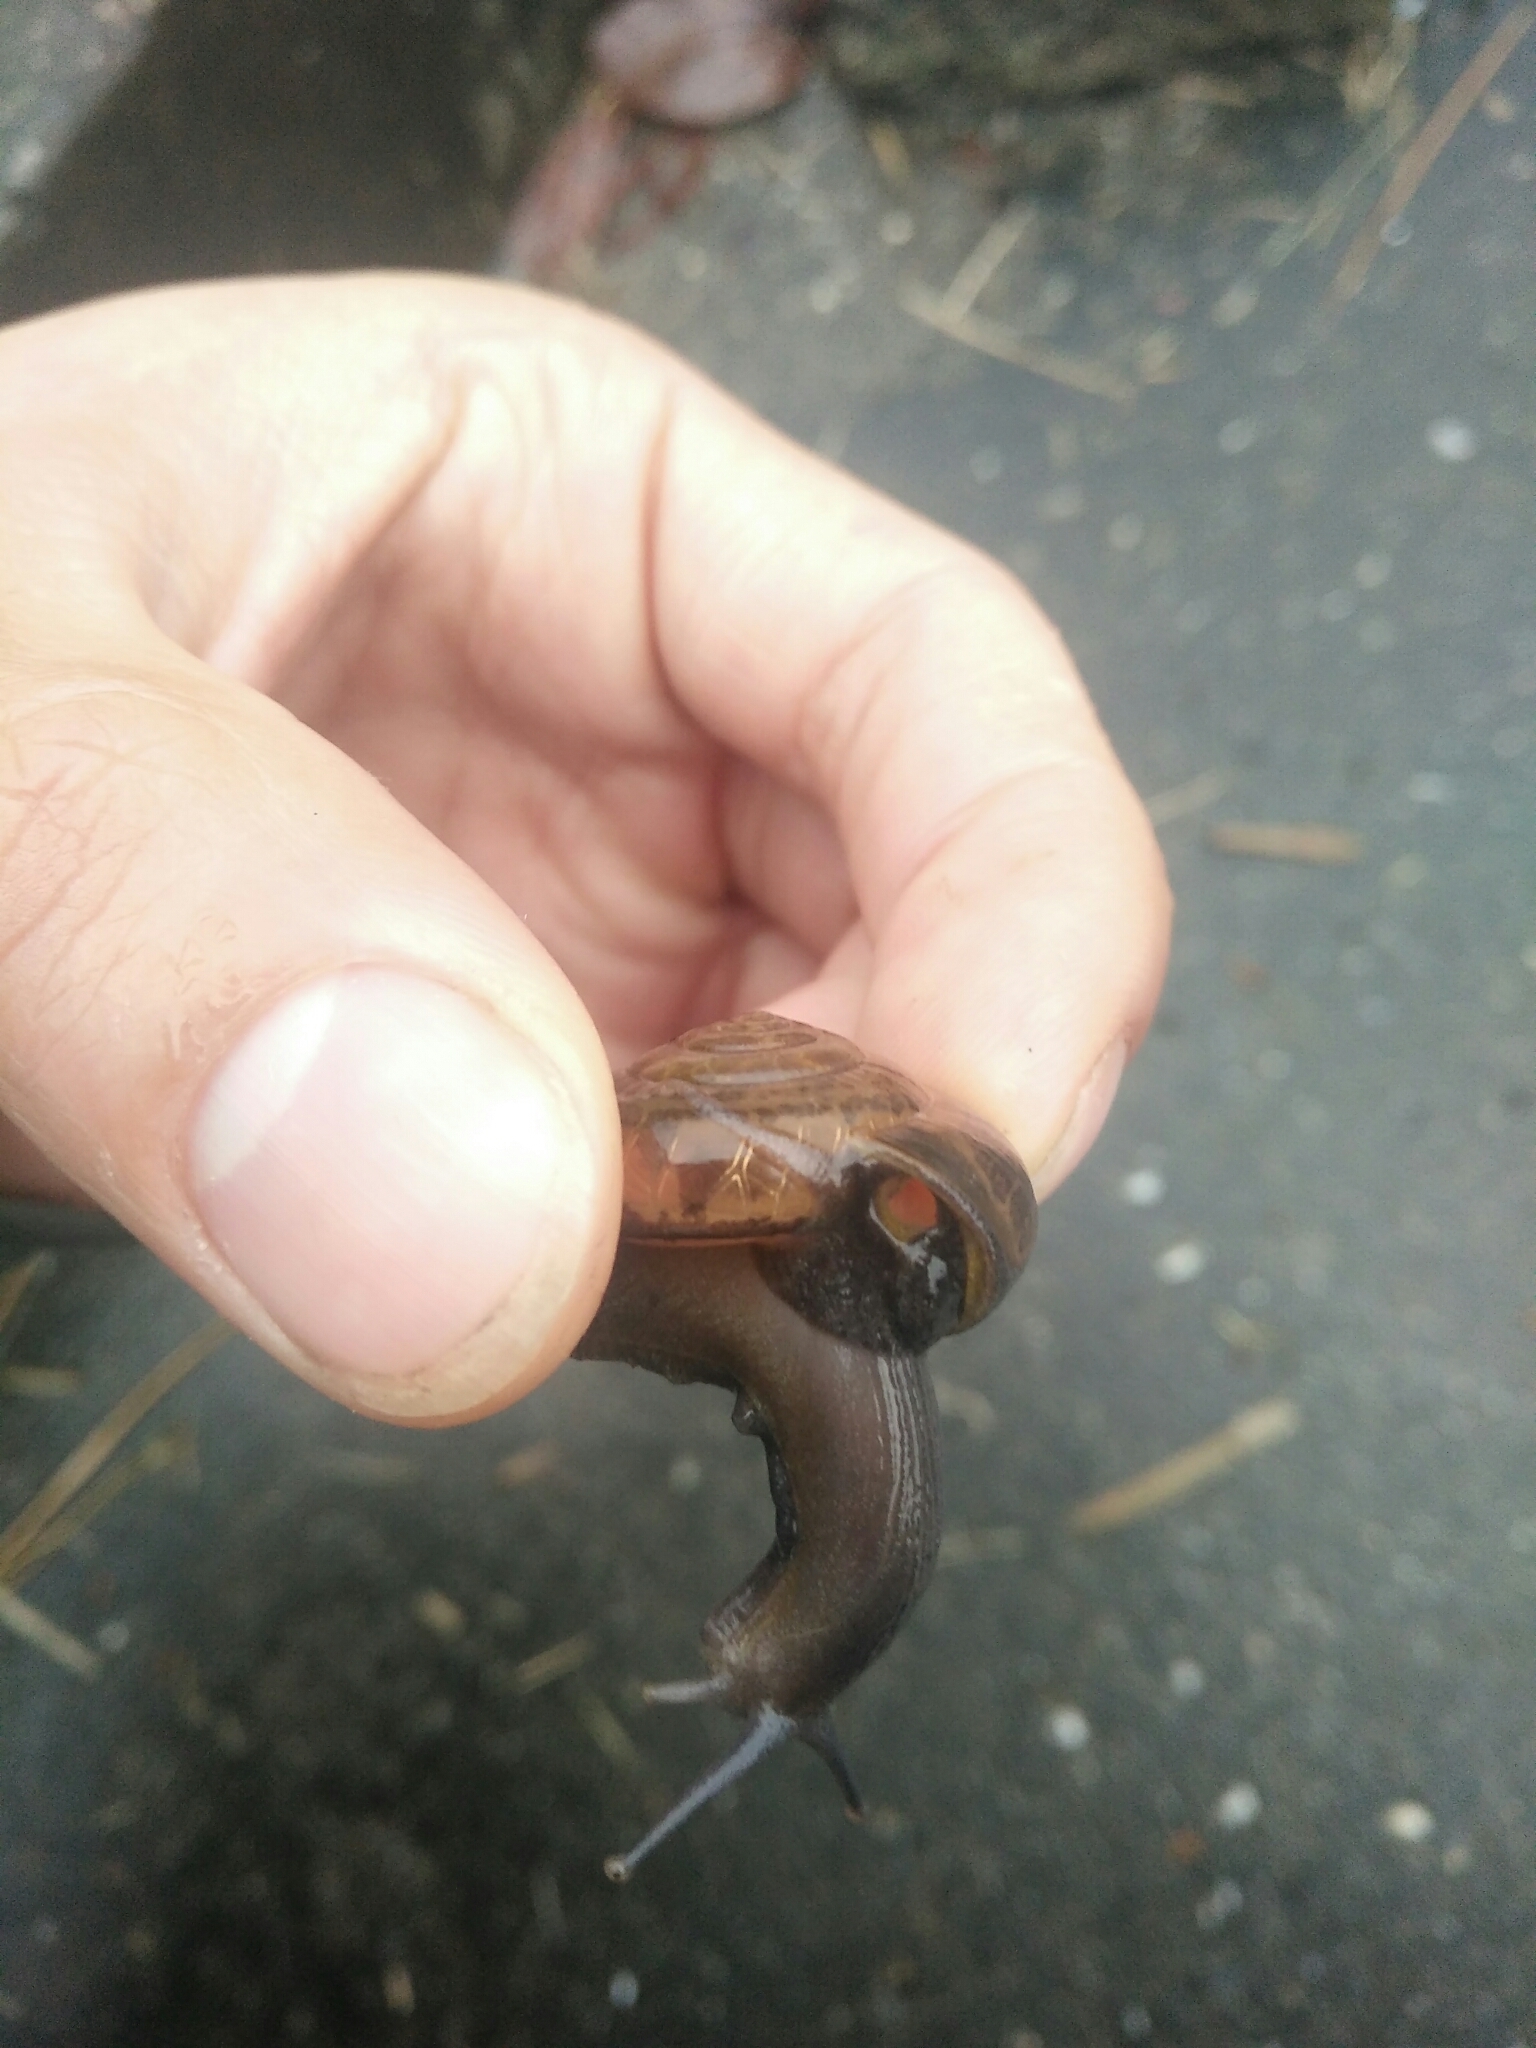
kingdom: Animalia
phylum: Mollusca
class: Gastropoda
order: Stylommatophora
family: Ariophantidae
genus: Macrochlamys
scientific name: Macrochlamys hippocastaneum
